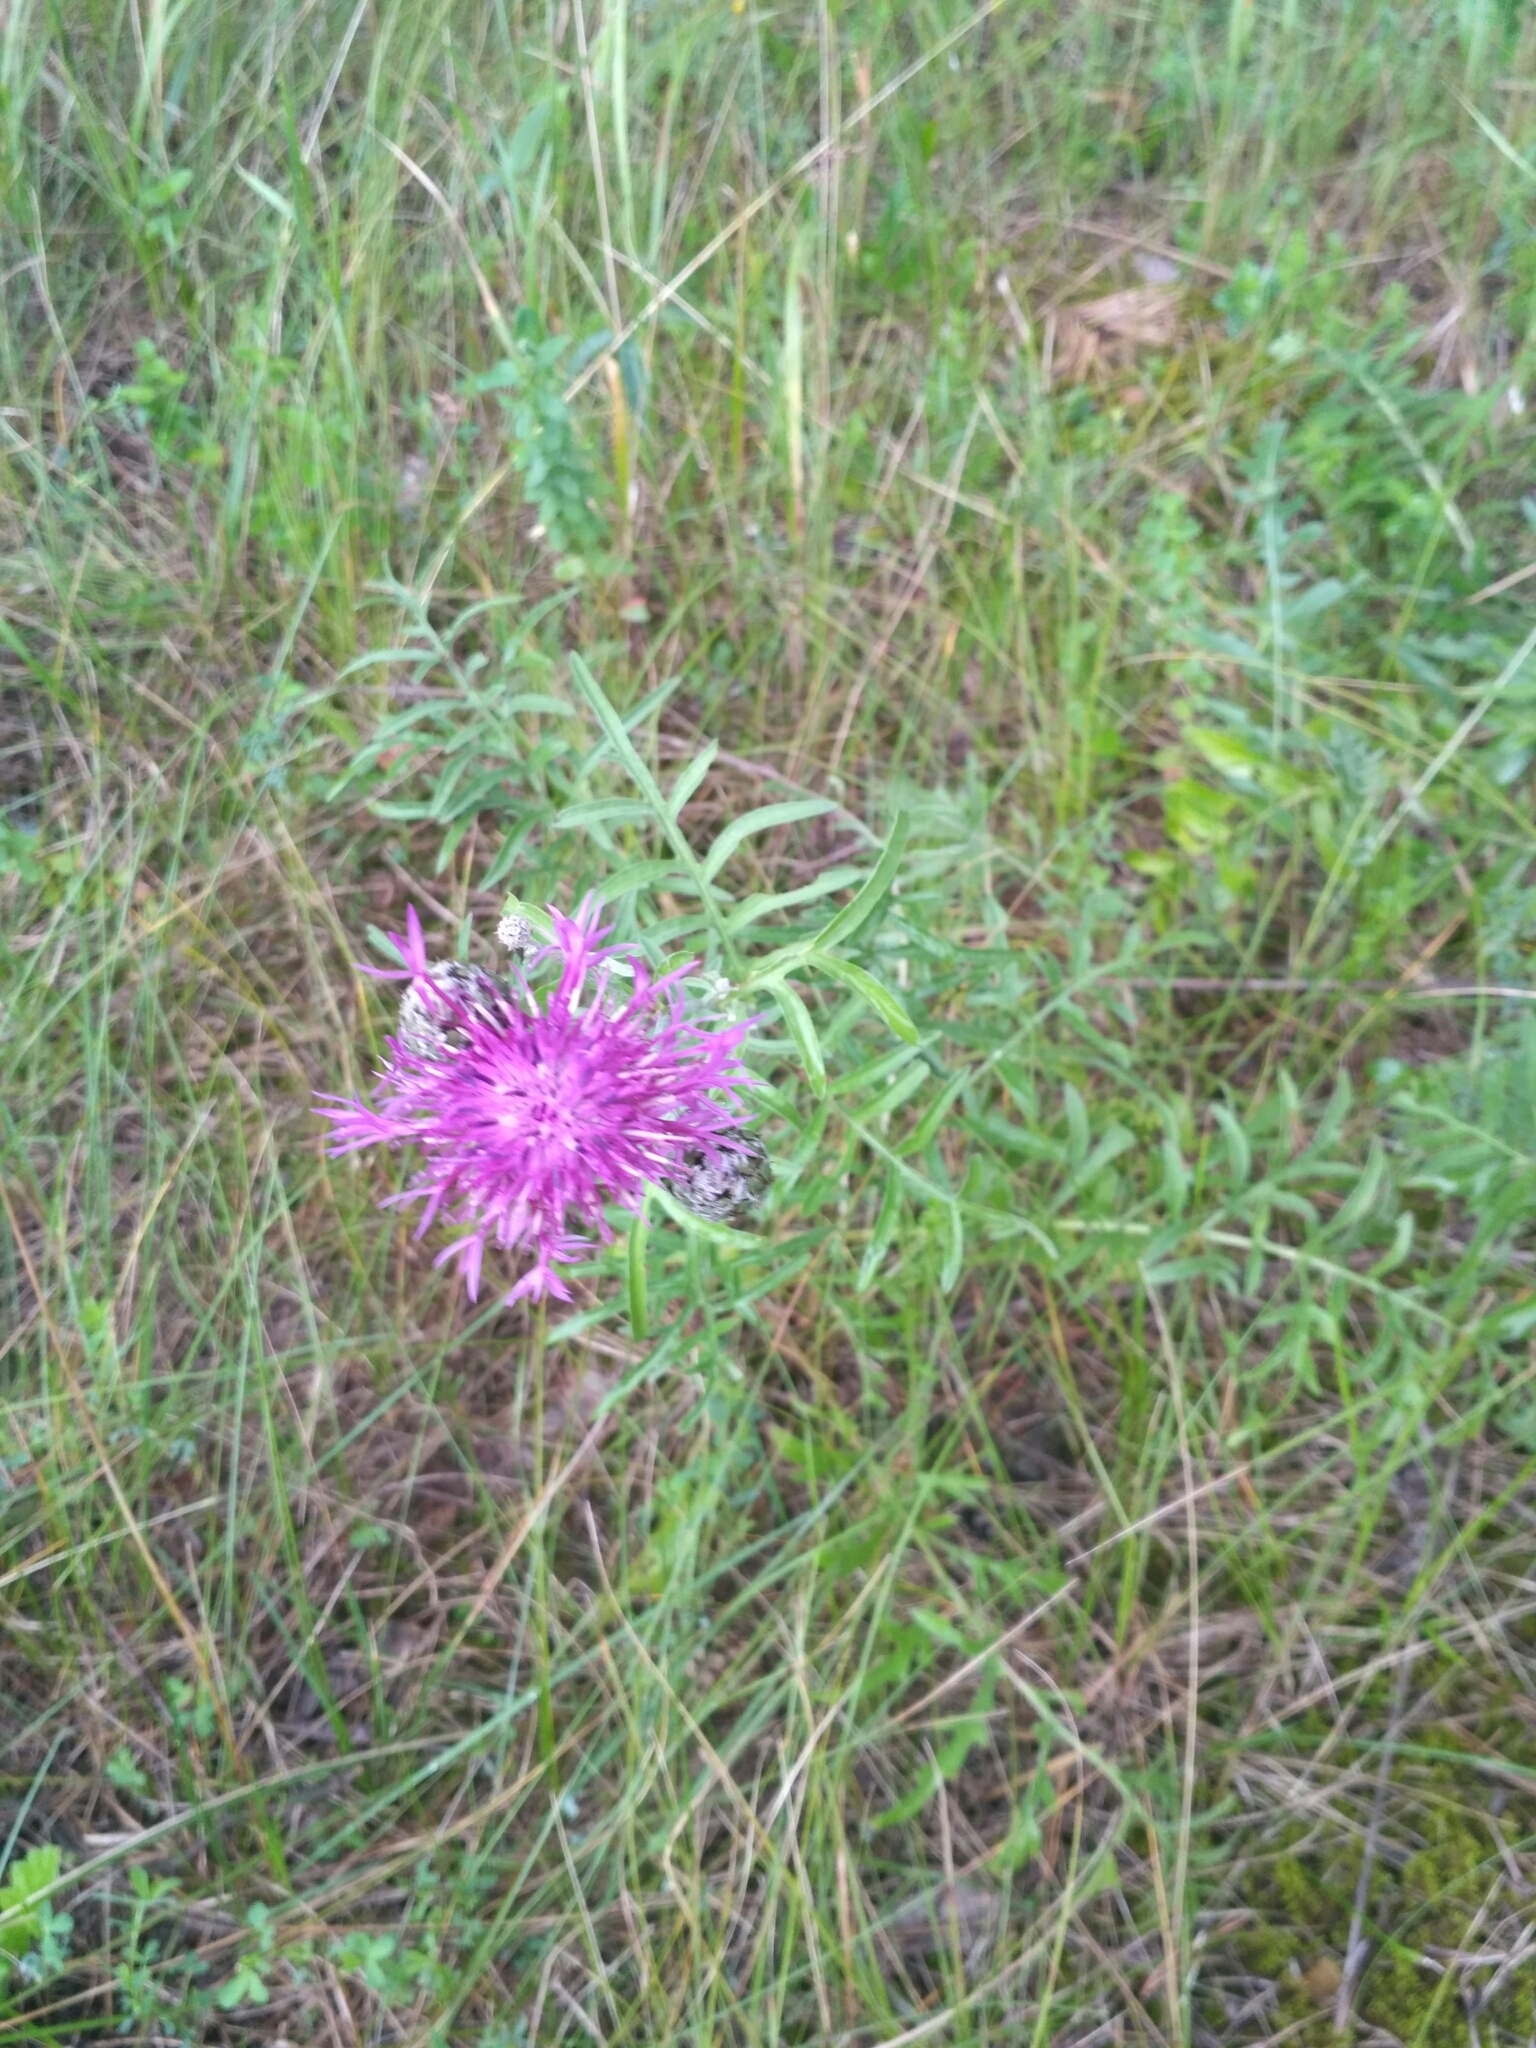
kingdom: Plantae
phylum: Tracheophyta
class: Magnoliopsida
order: Asterales
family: Asteraceae
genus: Centaurea
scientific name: Centaurea scabiosa
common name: Greater knapweed
